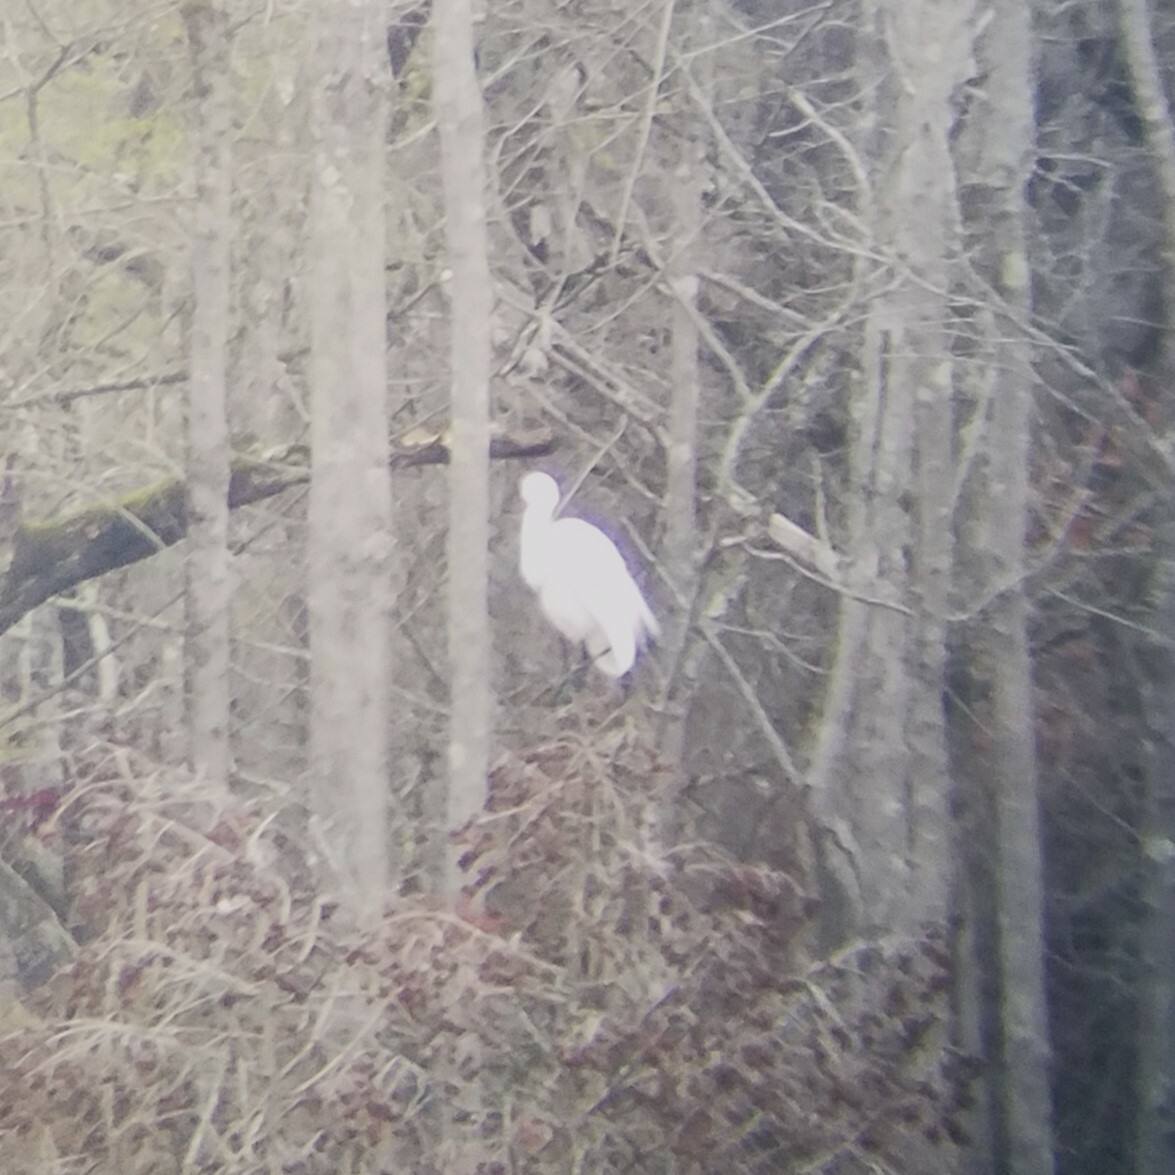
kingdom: Animalia
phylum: Chordata
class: Aves
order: Pelecaniformes
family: Ardeidae
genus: Ardea
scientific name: Ardea alba
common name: Great egret
